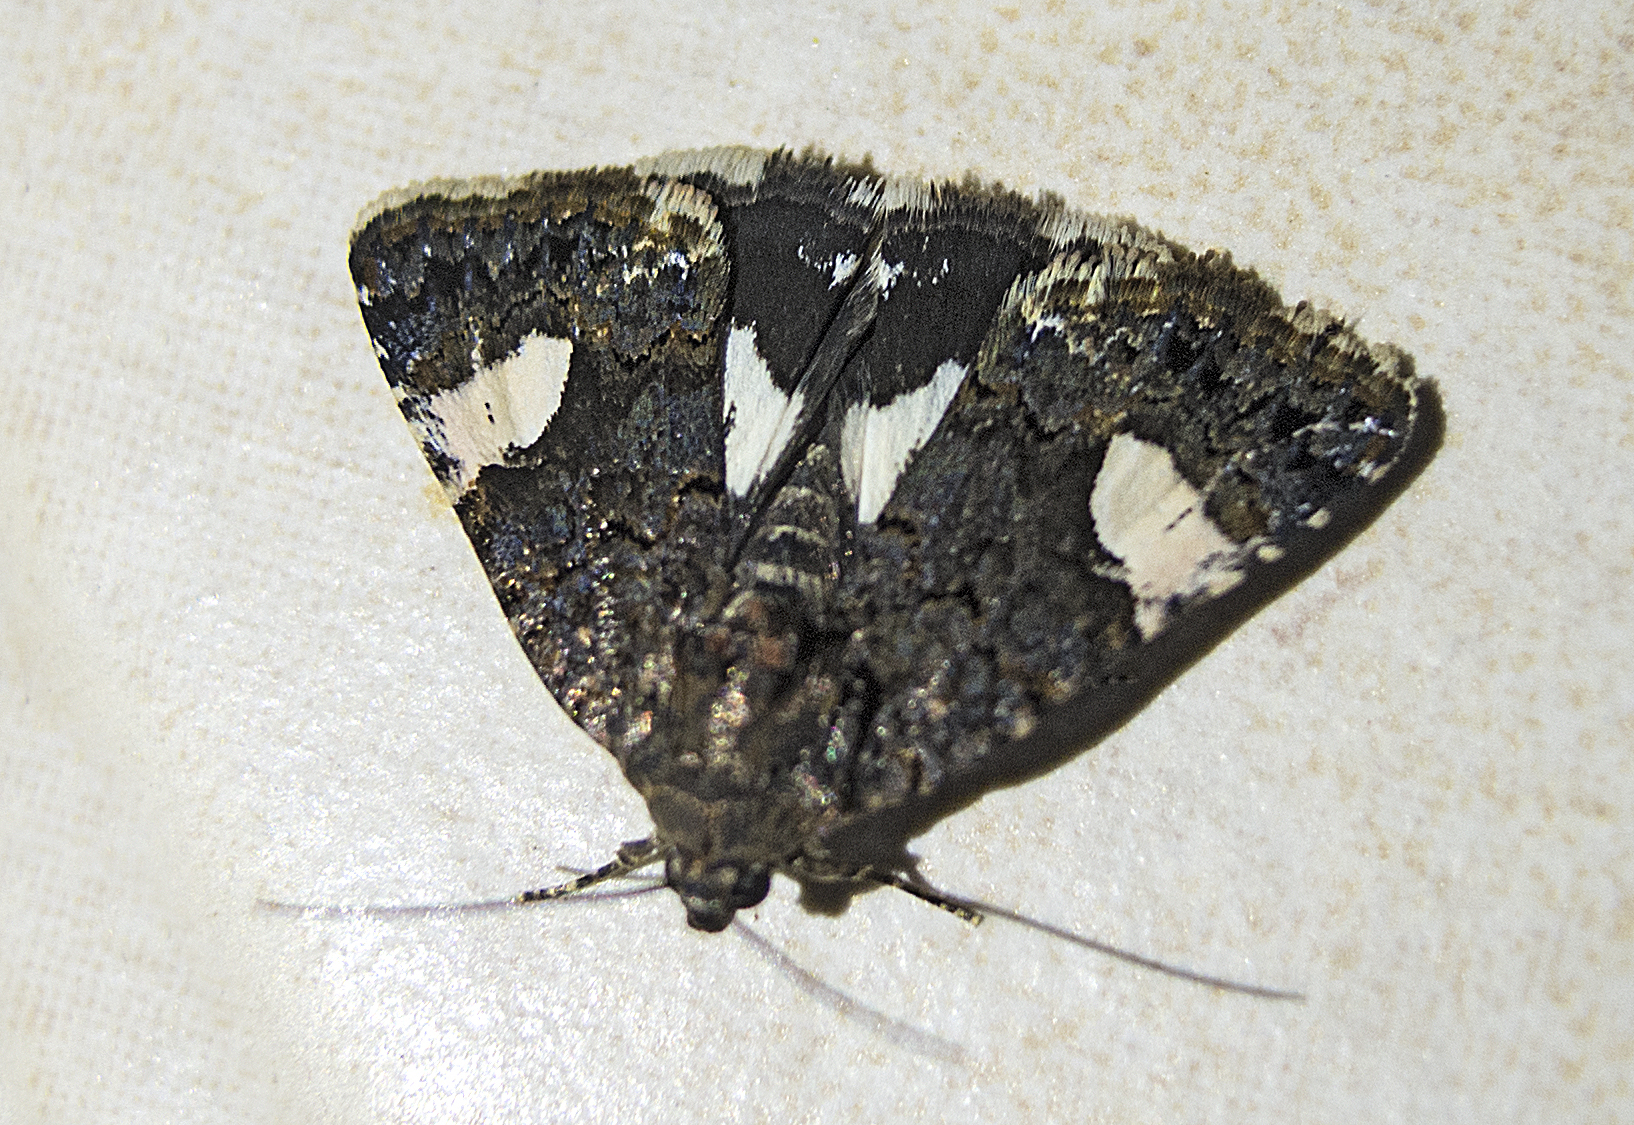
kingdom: Animalia
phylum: Arthropoda
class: Insecta
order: Lepidoptera
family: Erebidae
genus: Tyta
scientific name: Tyta luctuosa
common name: Four-spotted
